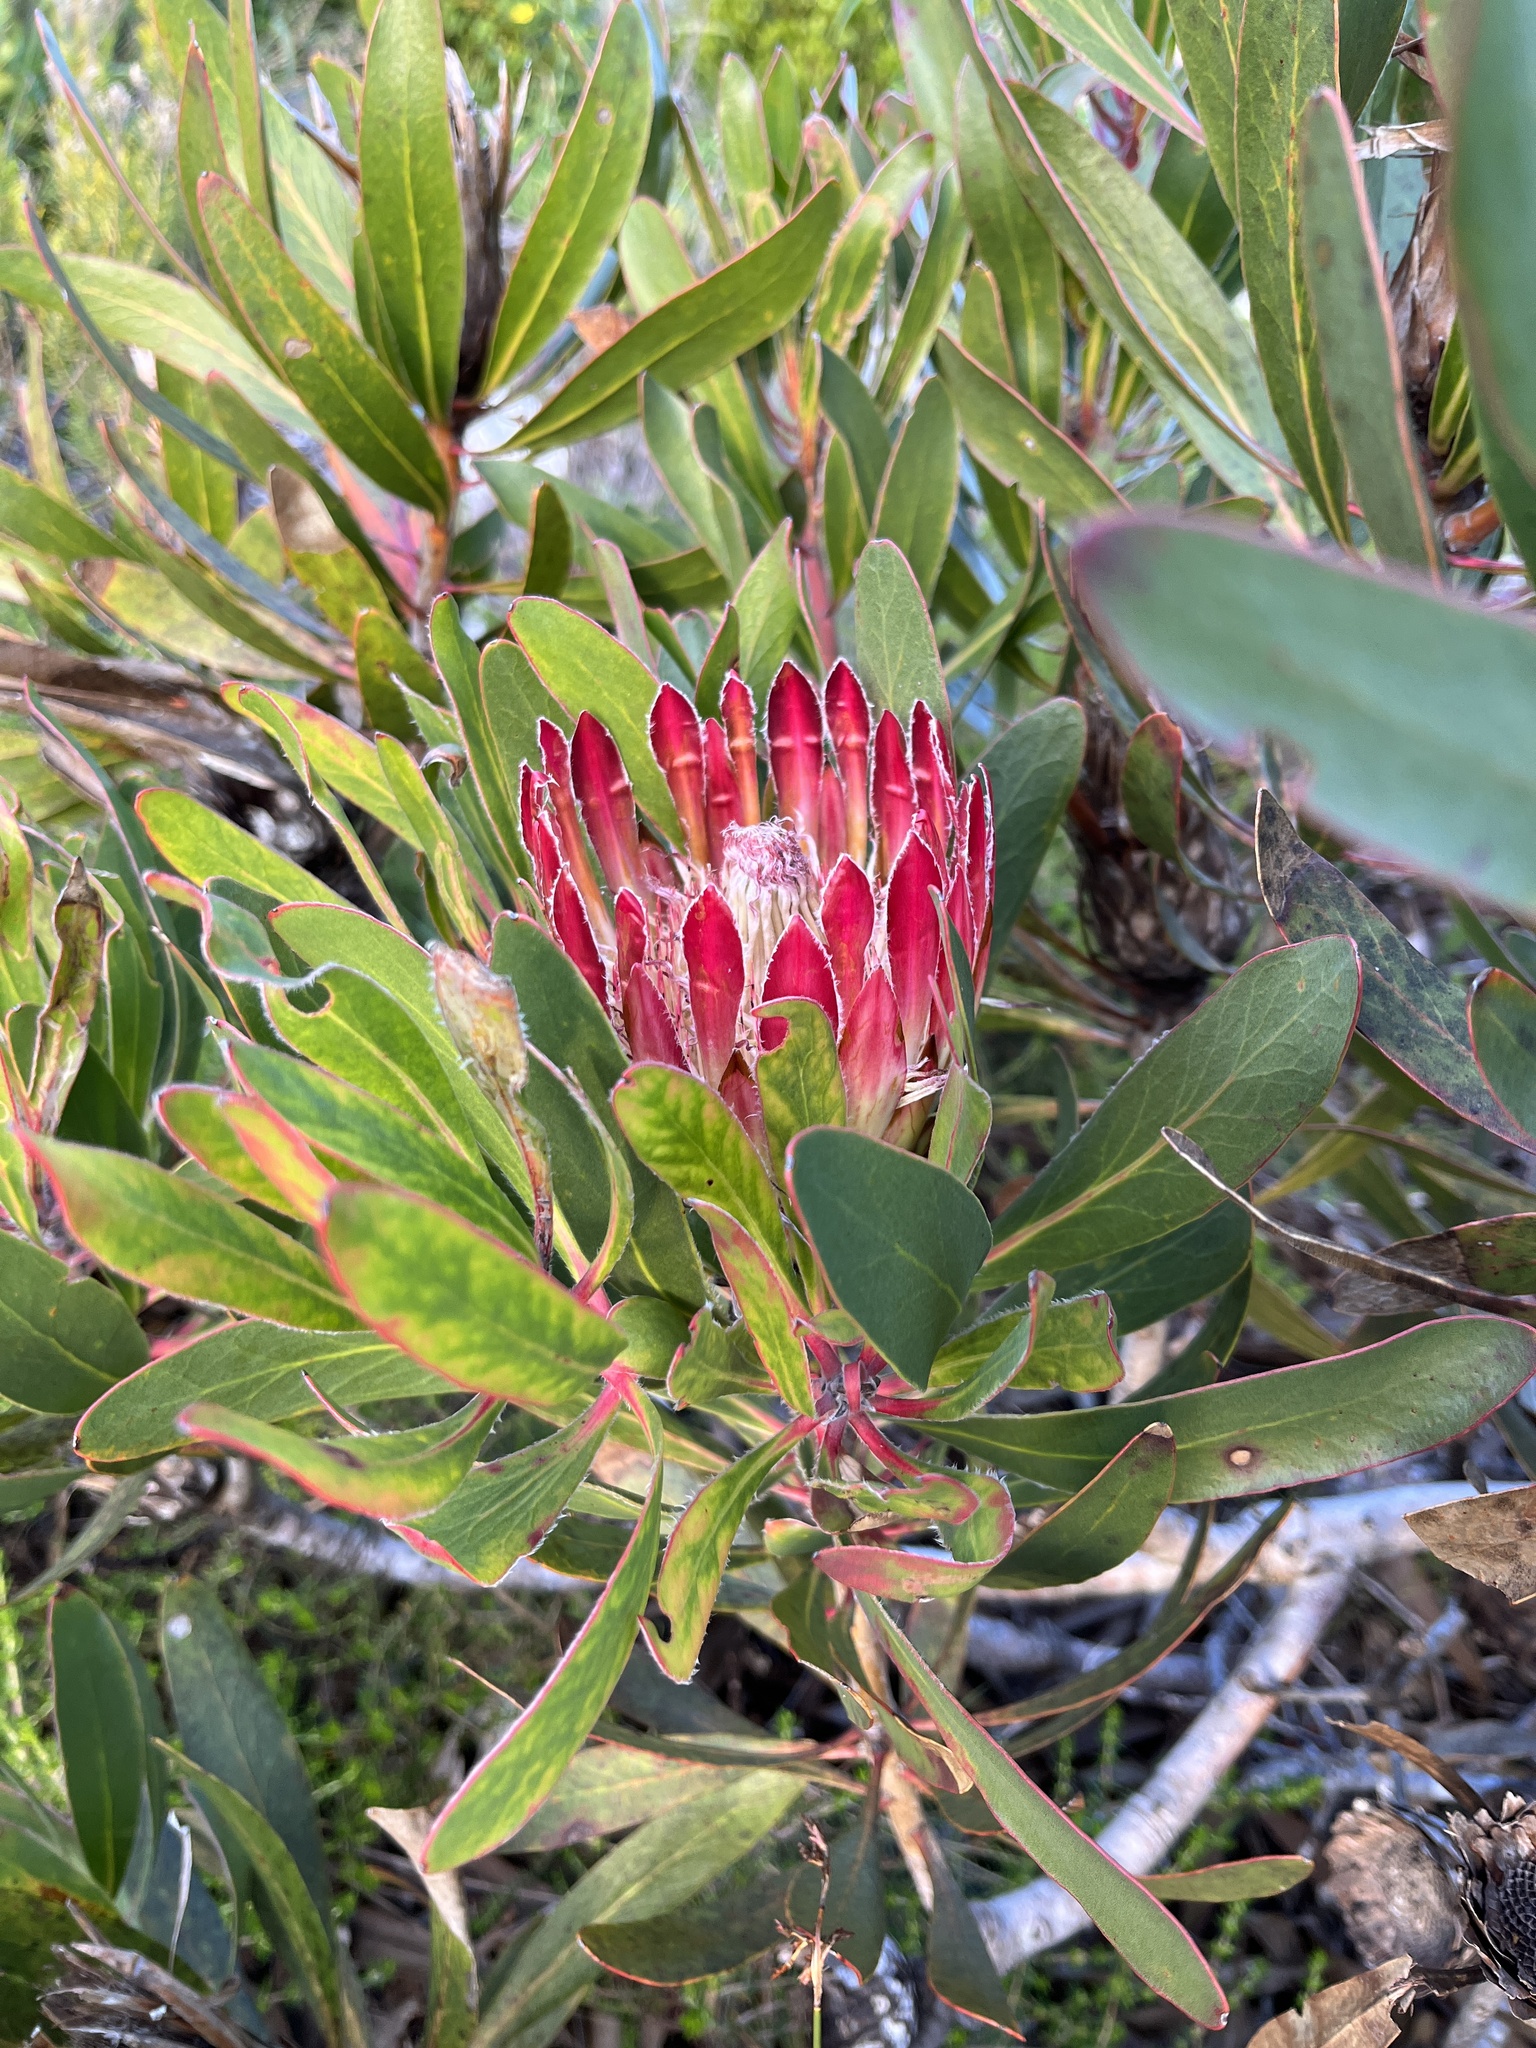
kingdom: Plantae
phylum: Tracheophyta
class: Magnoliopsida
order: Proteales
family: Proteaceae
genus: Protea
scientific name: Protea obtusifolia
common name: Bredasdorp sugarbush
